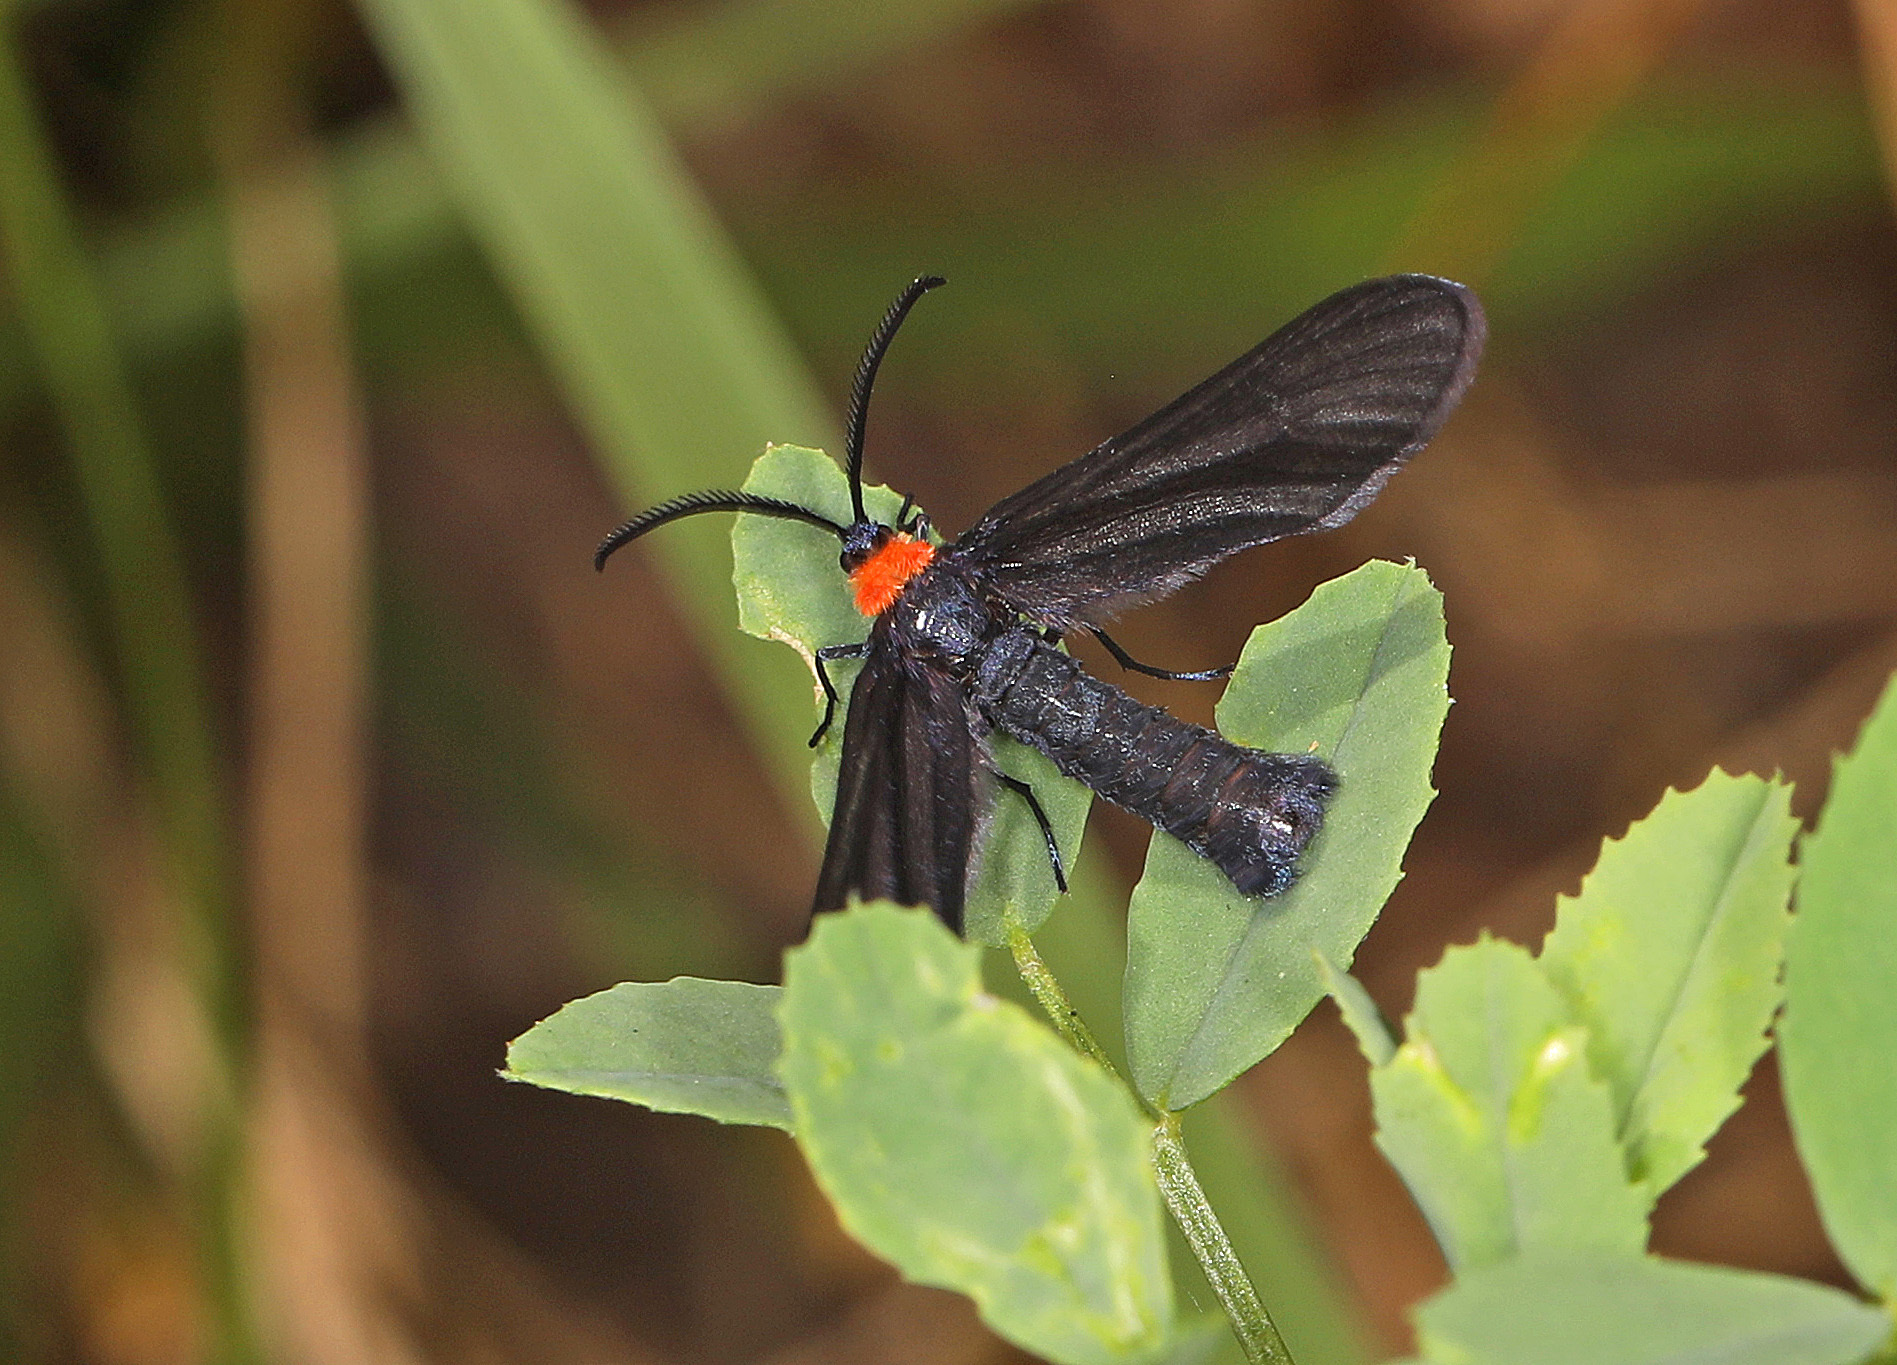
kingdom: Animalia
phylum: Arthropoda
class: Insecta
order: Lepidoptera
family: Zygaenidae
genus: Harrisina
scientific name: Harrisina americana
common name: Grapeleaf skeletonizer moth
